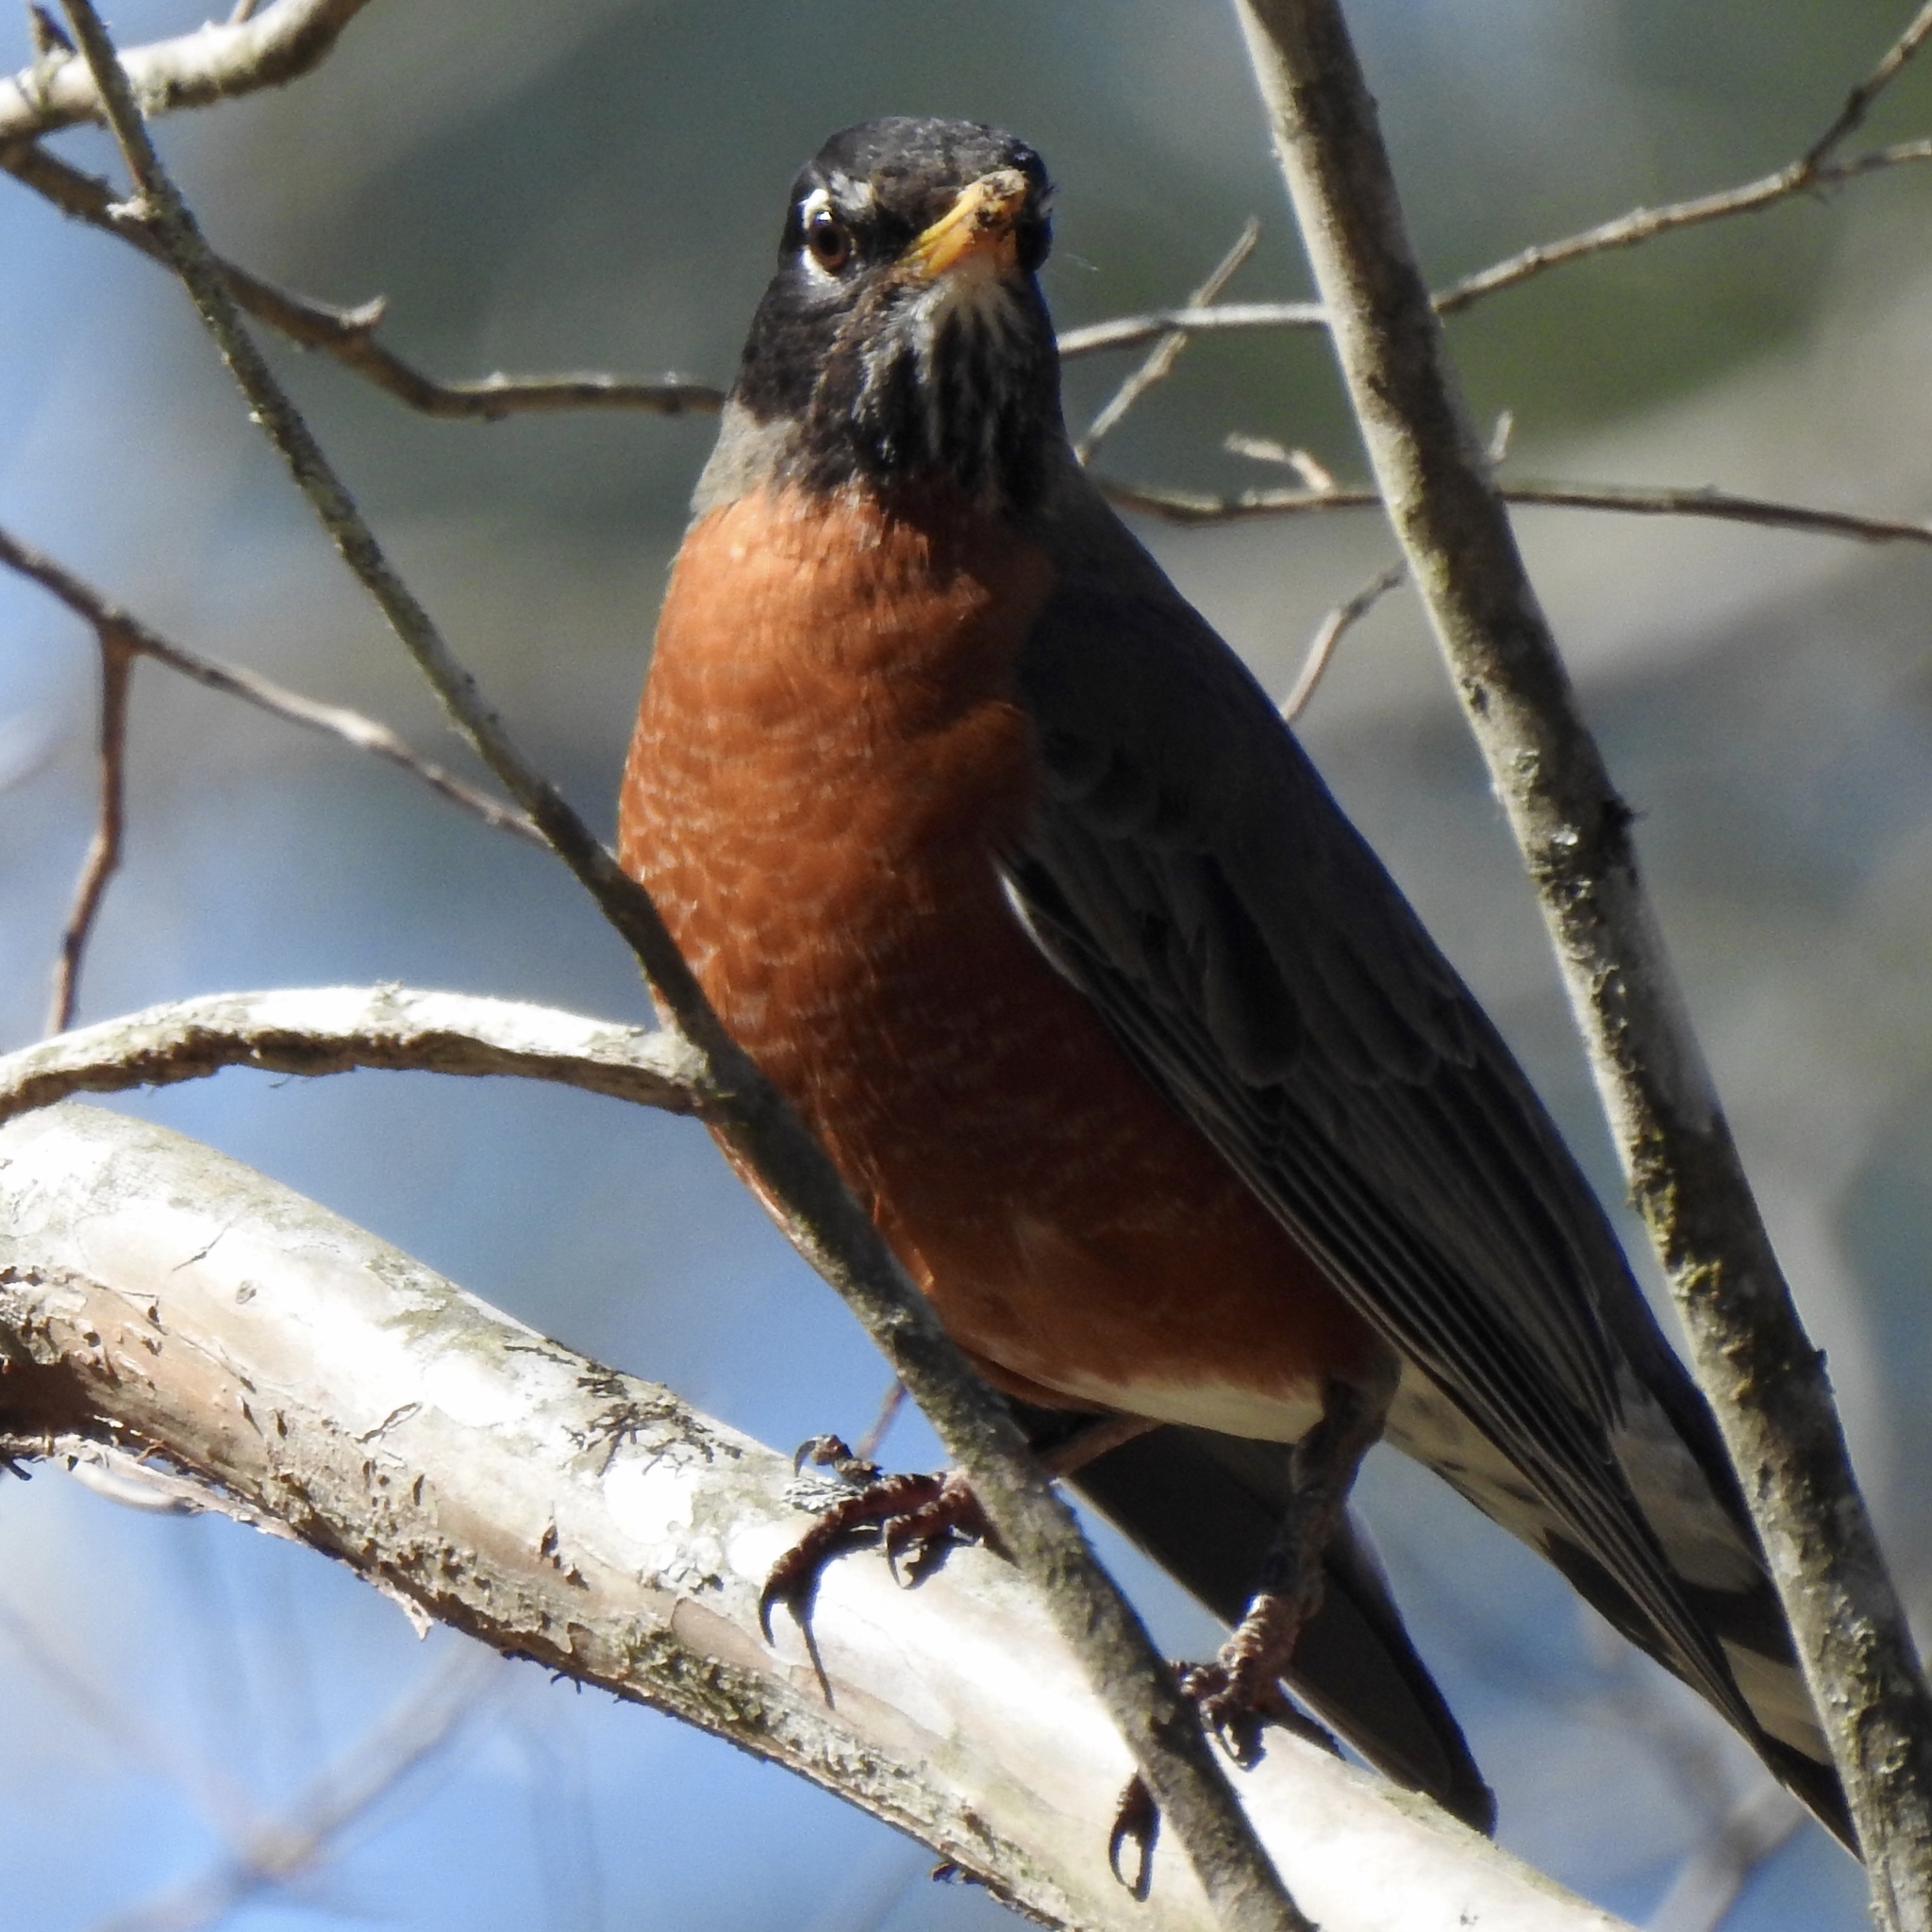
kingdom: Animalia
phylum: Chordata
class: Aves
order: Passeriformes
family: Turdidae
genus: Turdus
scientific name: Turdus migratorius
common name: American robin
